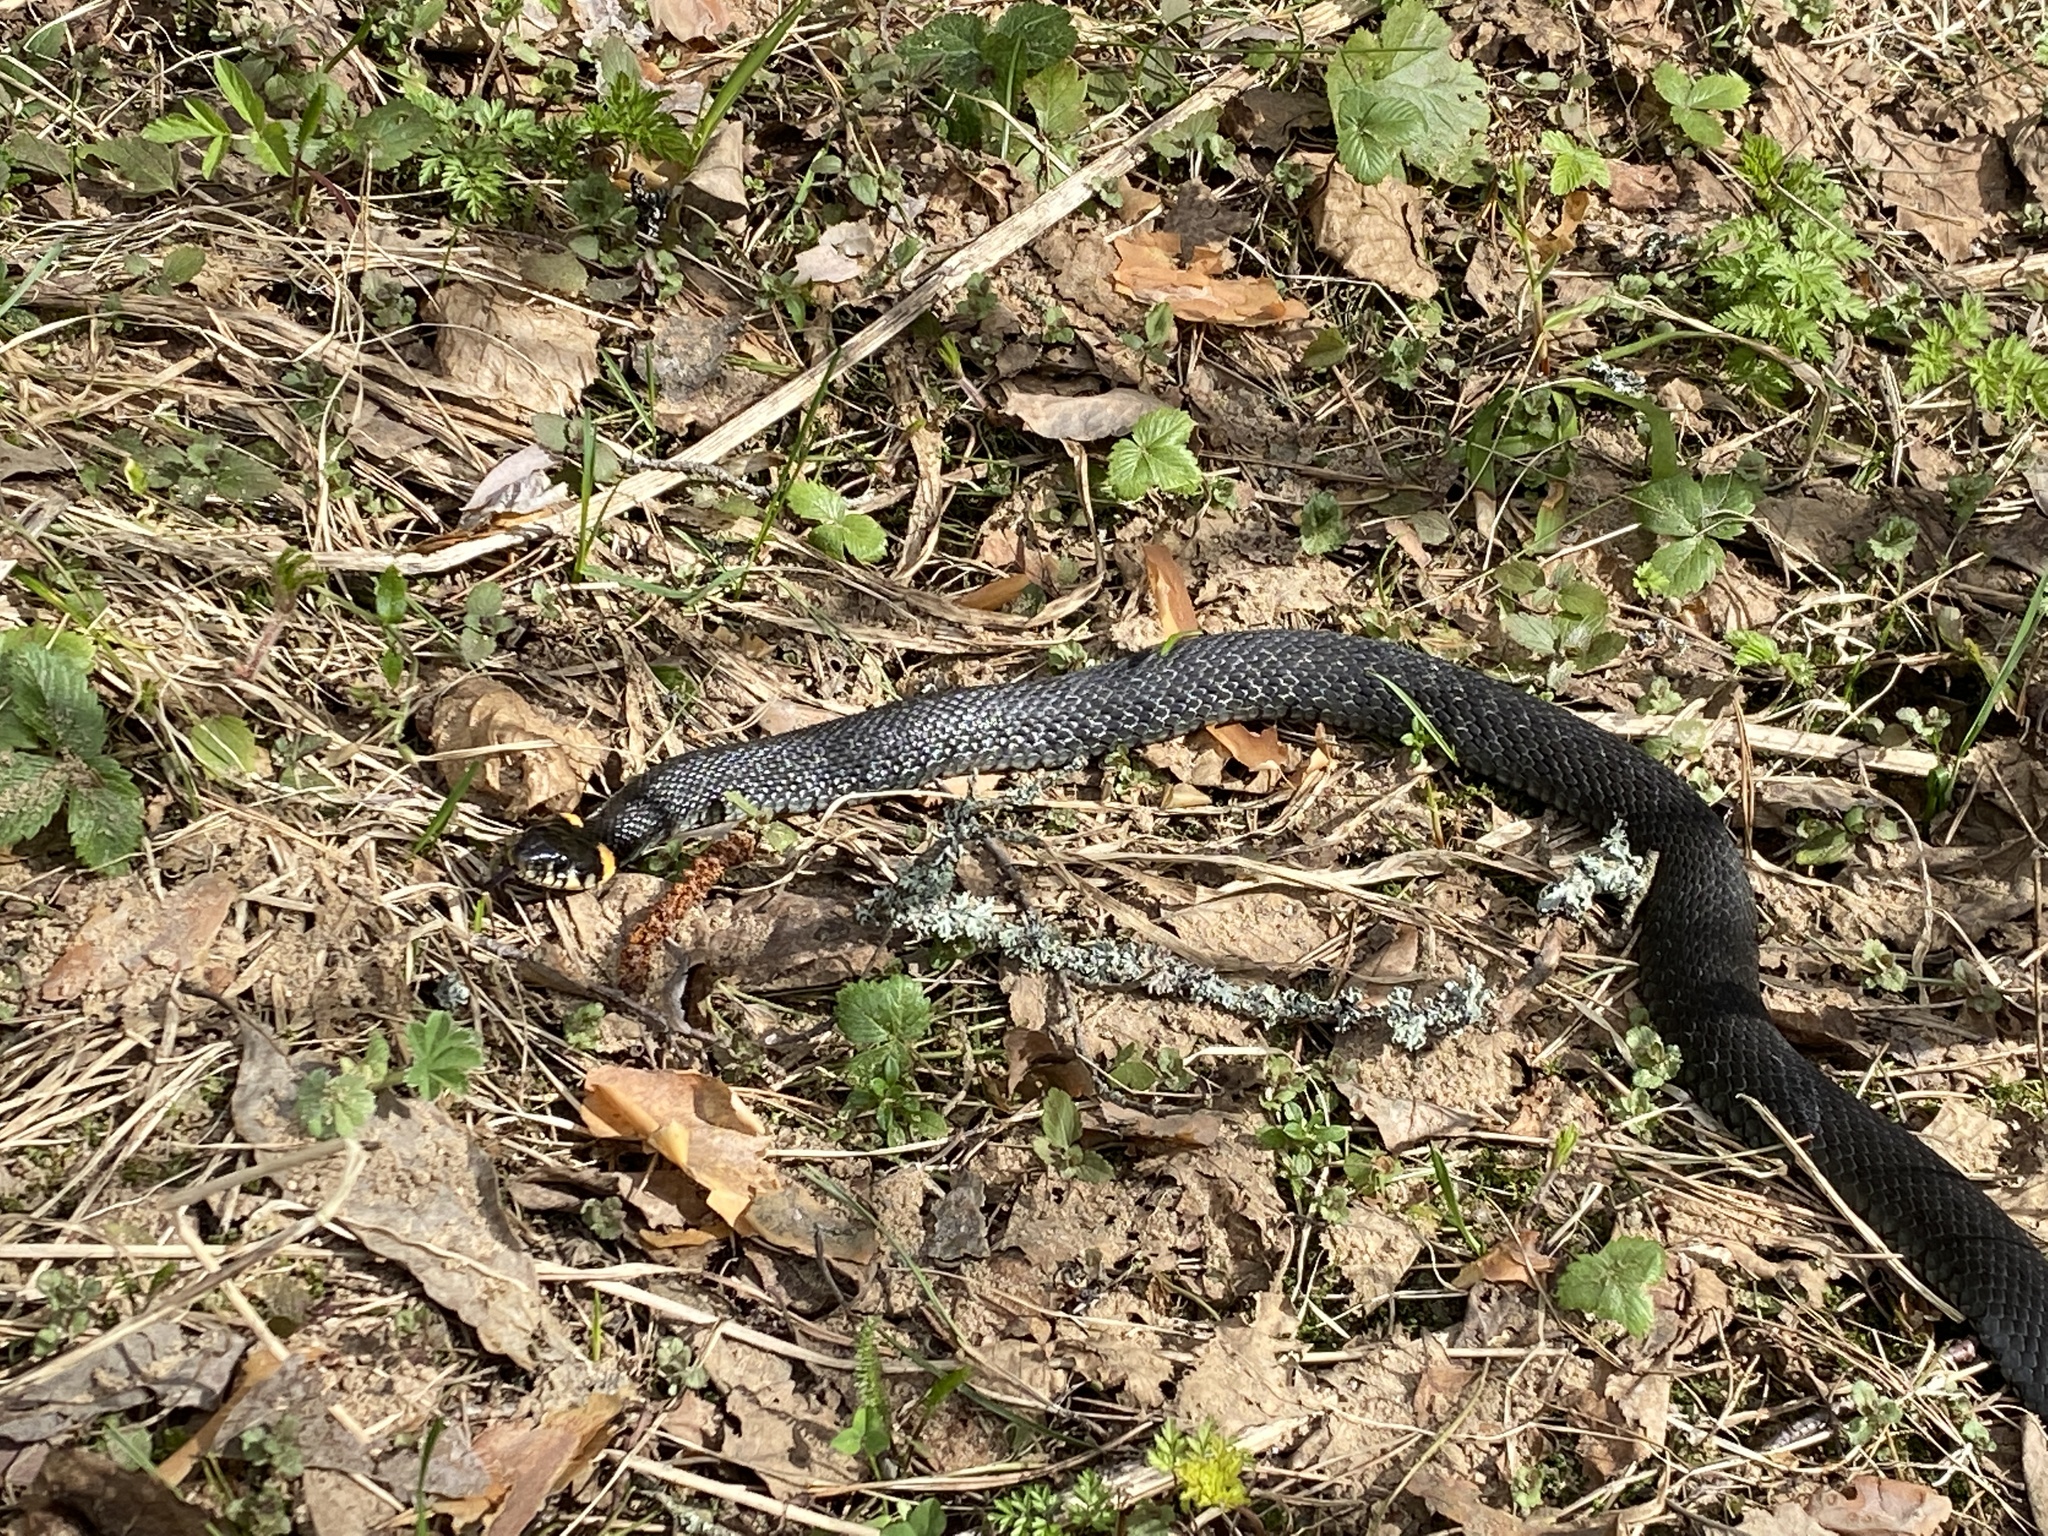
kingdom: Animalia
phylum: Chordata
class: Squamata
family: Colubridae
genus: Natrix
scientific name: Natrix natrix
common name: Grass snake
